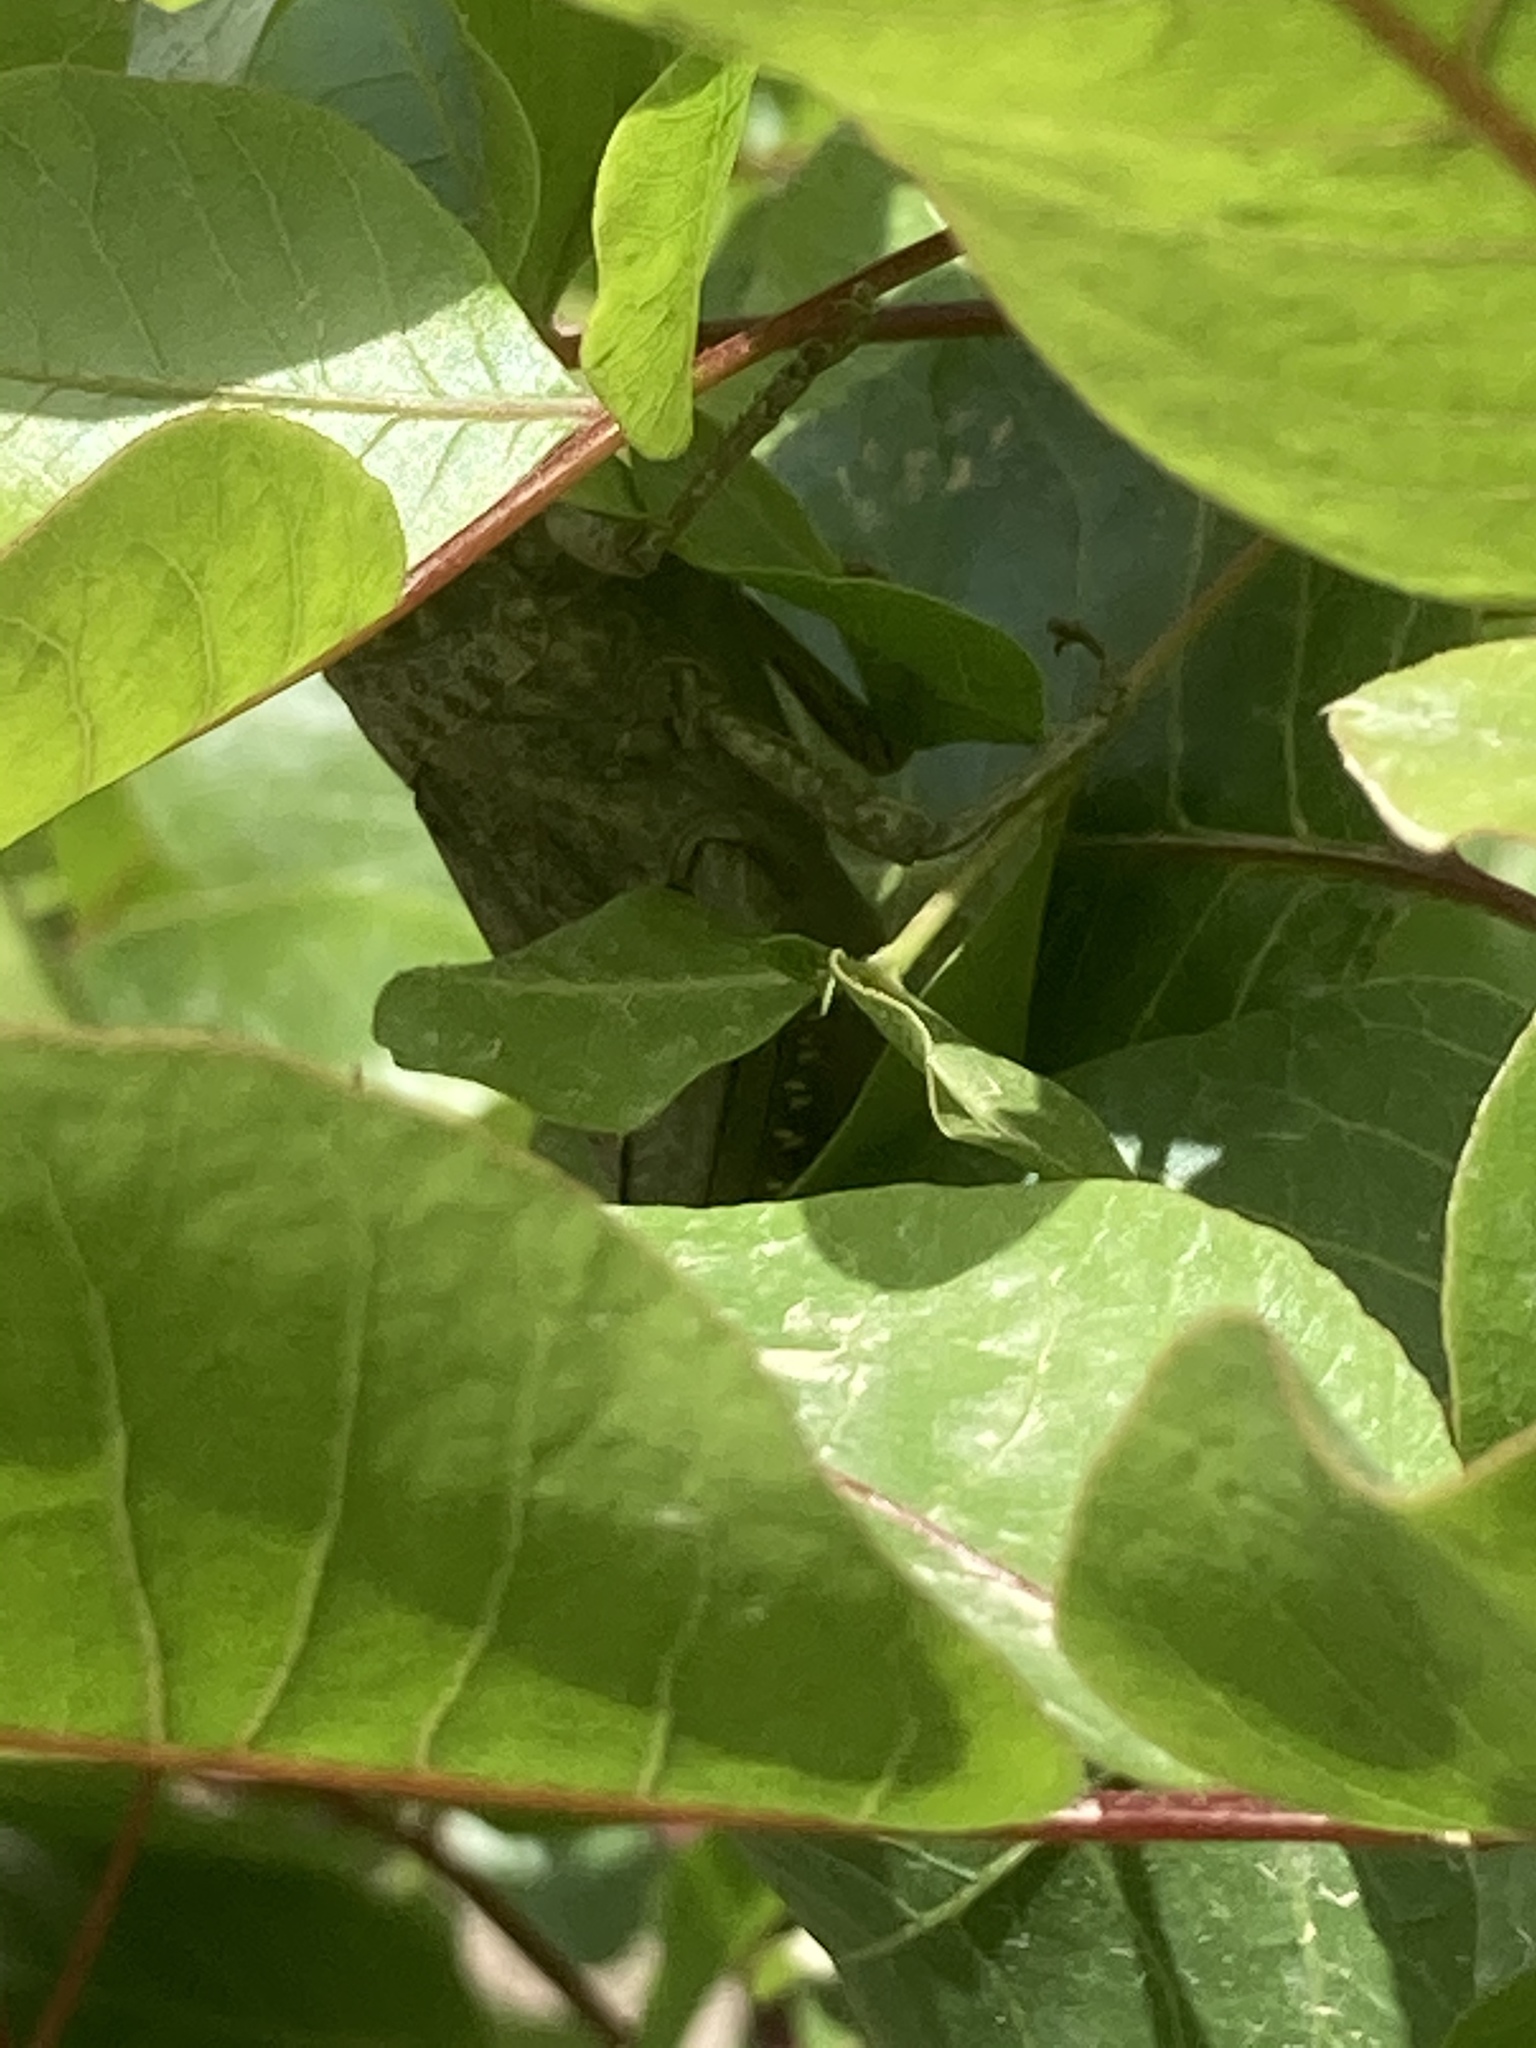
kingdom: Animalia
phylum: Arthropoda
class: Insecta
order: Orthoptera
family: Acrididae
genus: Anacridium
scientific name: Anacridium aegyptium
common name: Egyptian grasshopper
